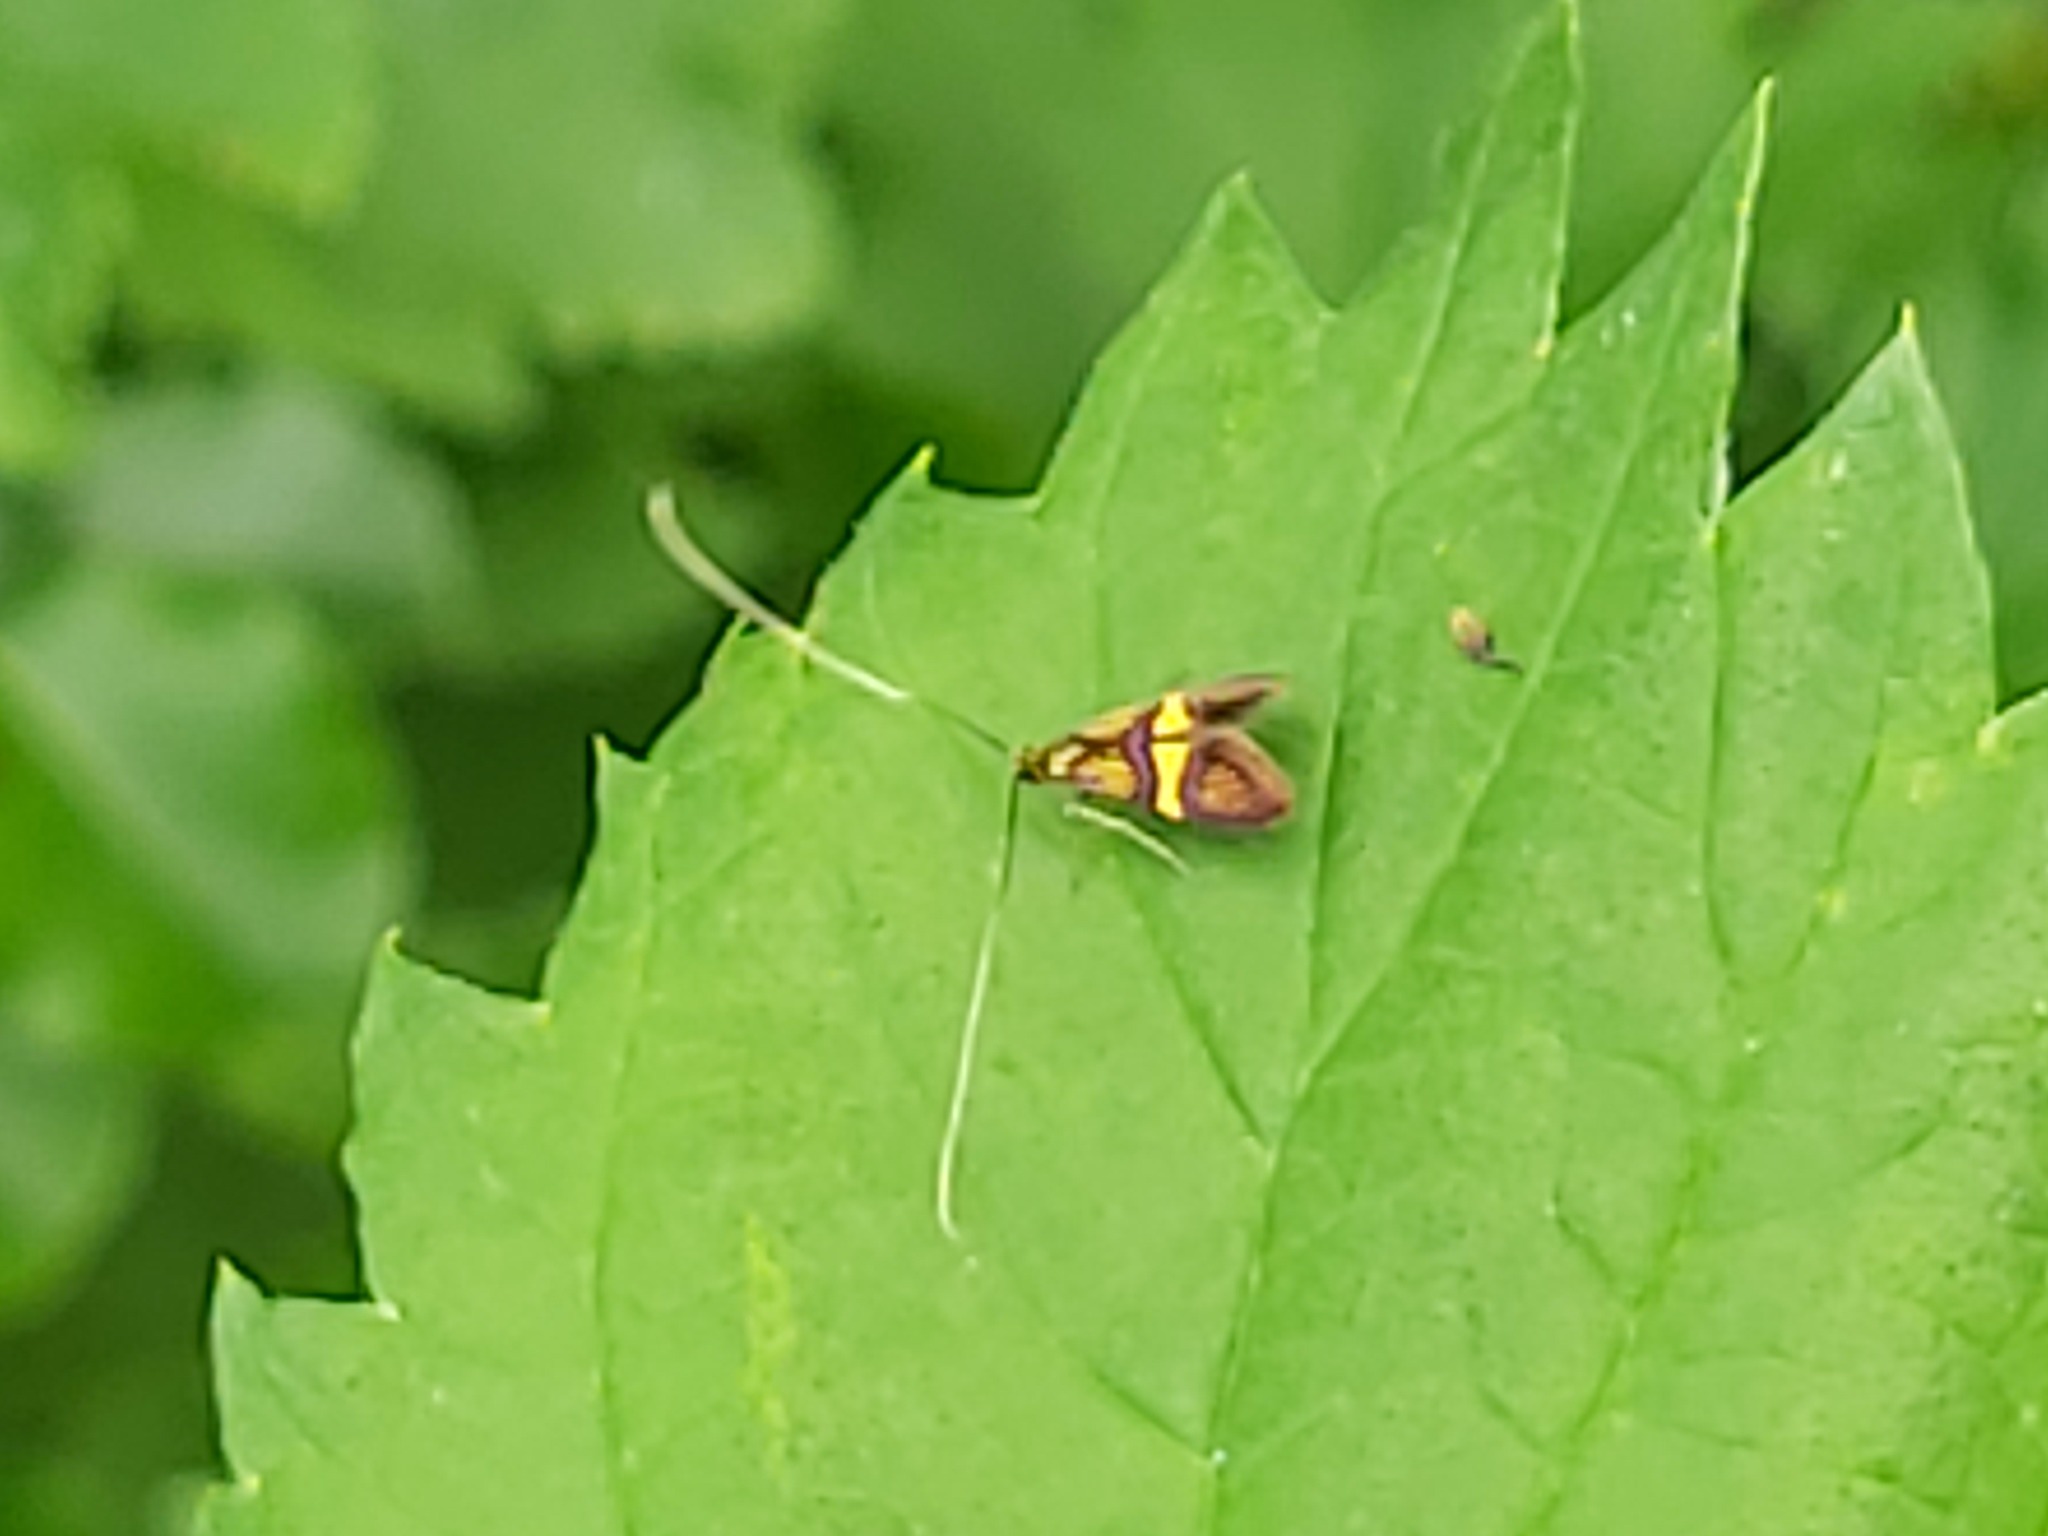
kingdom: Animalia
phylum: Arthropoda
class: Insecta
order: Lepidoptera
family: Adelidae
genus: Nemophora
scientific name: Nemophora degeerella
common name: Yellow-barred long-horn
